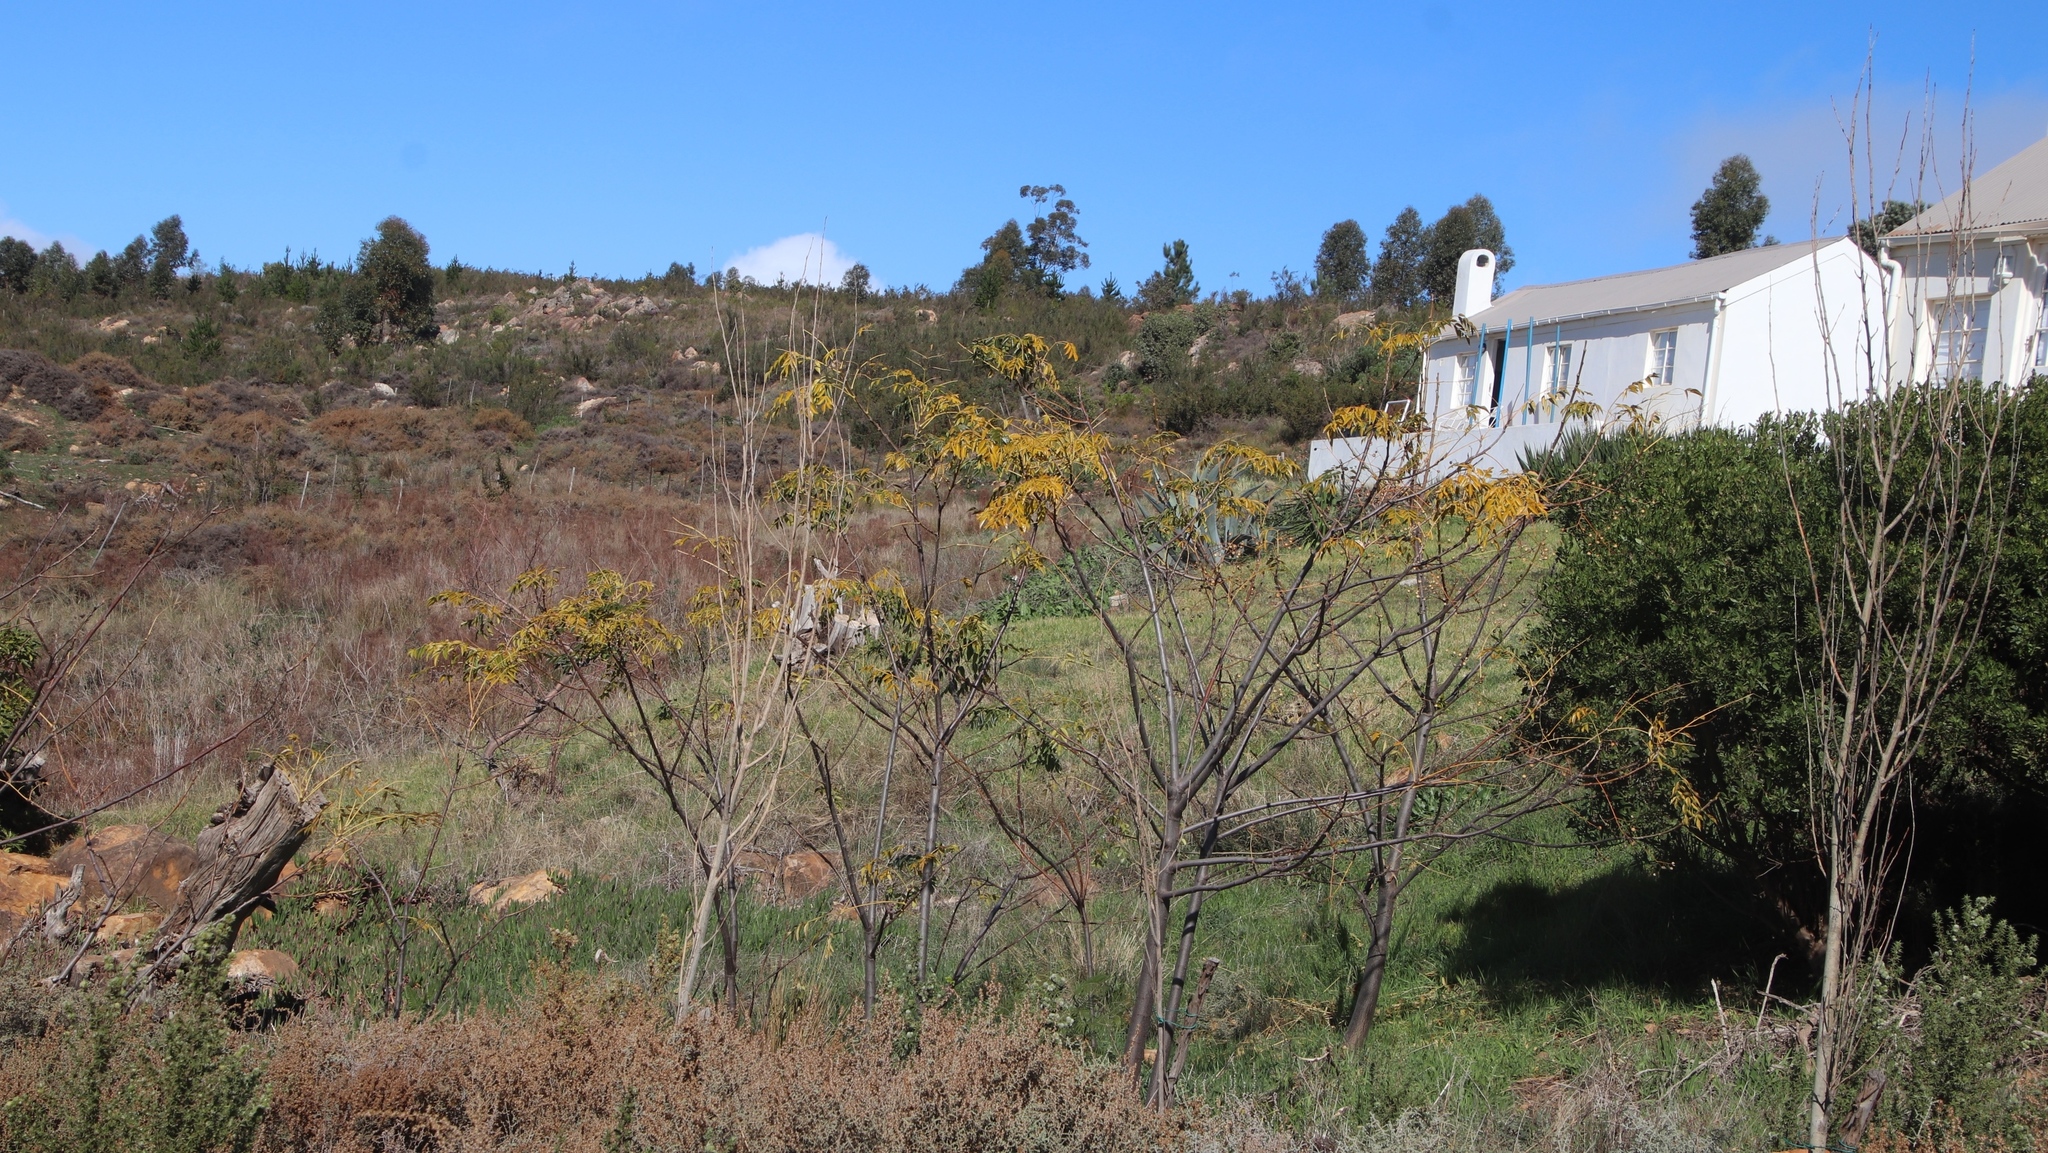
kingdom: Plantae
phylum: Tracheophyta
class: Magnoliopsida
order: Sapindales
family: Meliaceae
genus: Melia
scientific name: Melia azedarach
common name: Chinaberrytree
